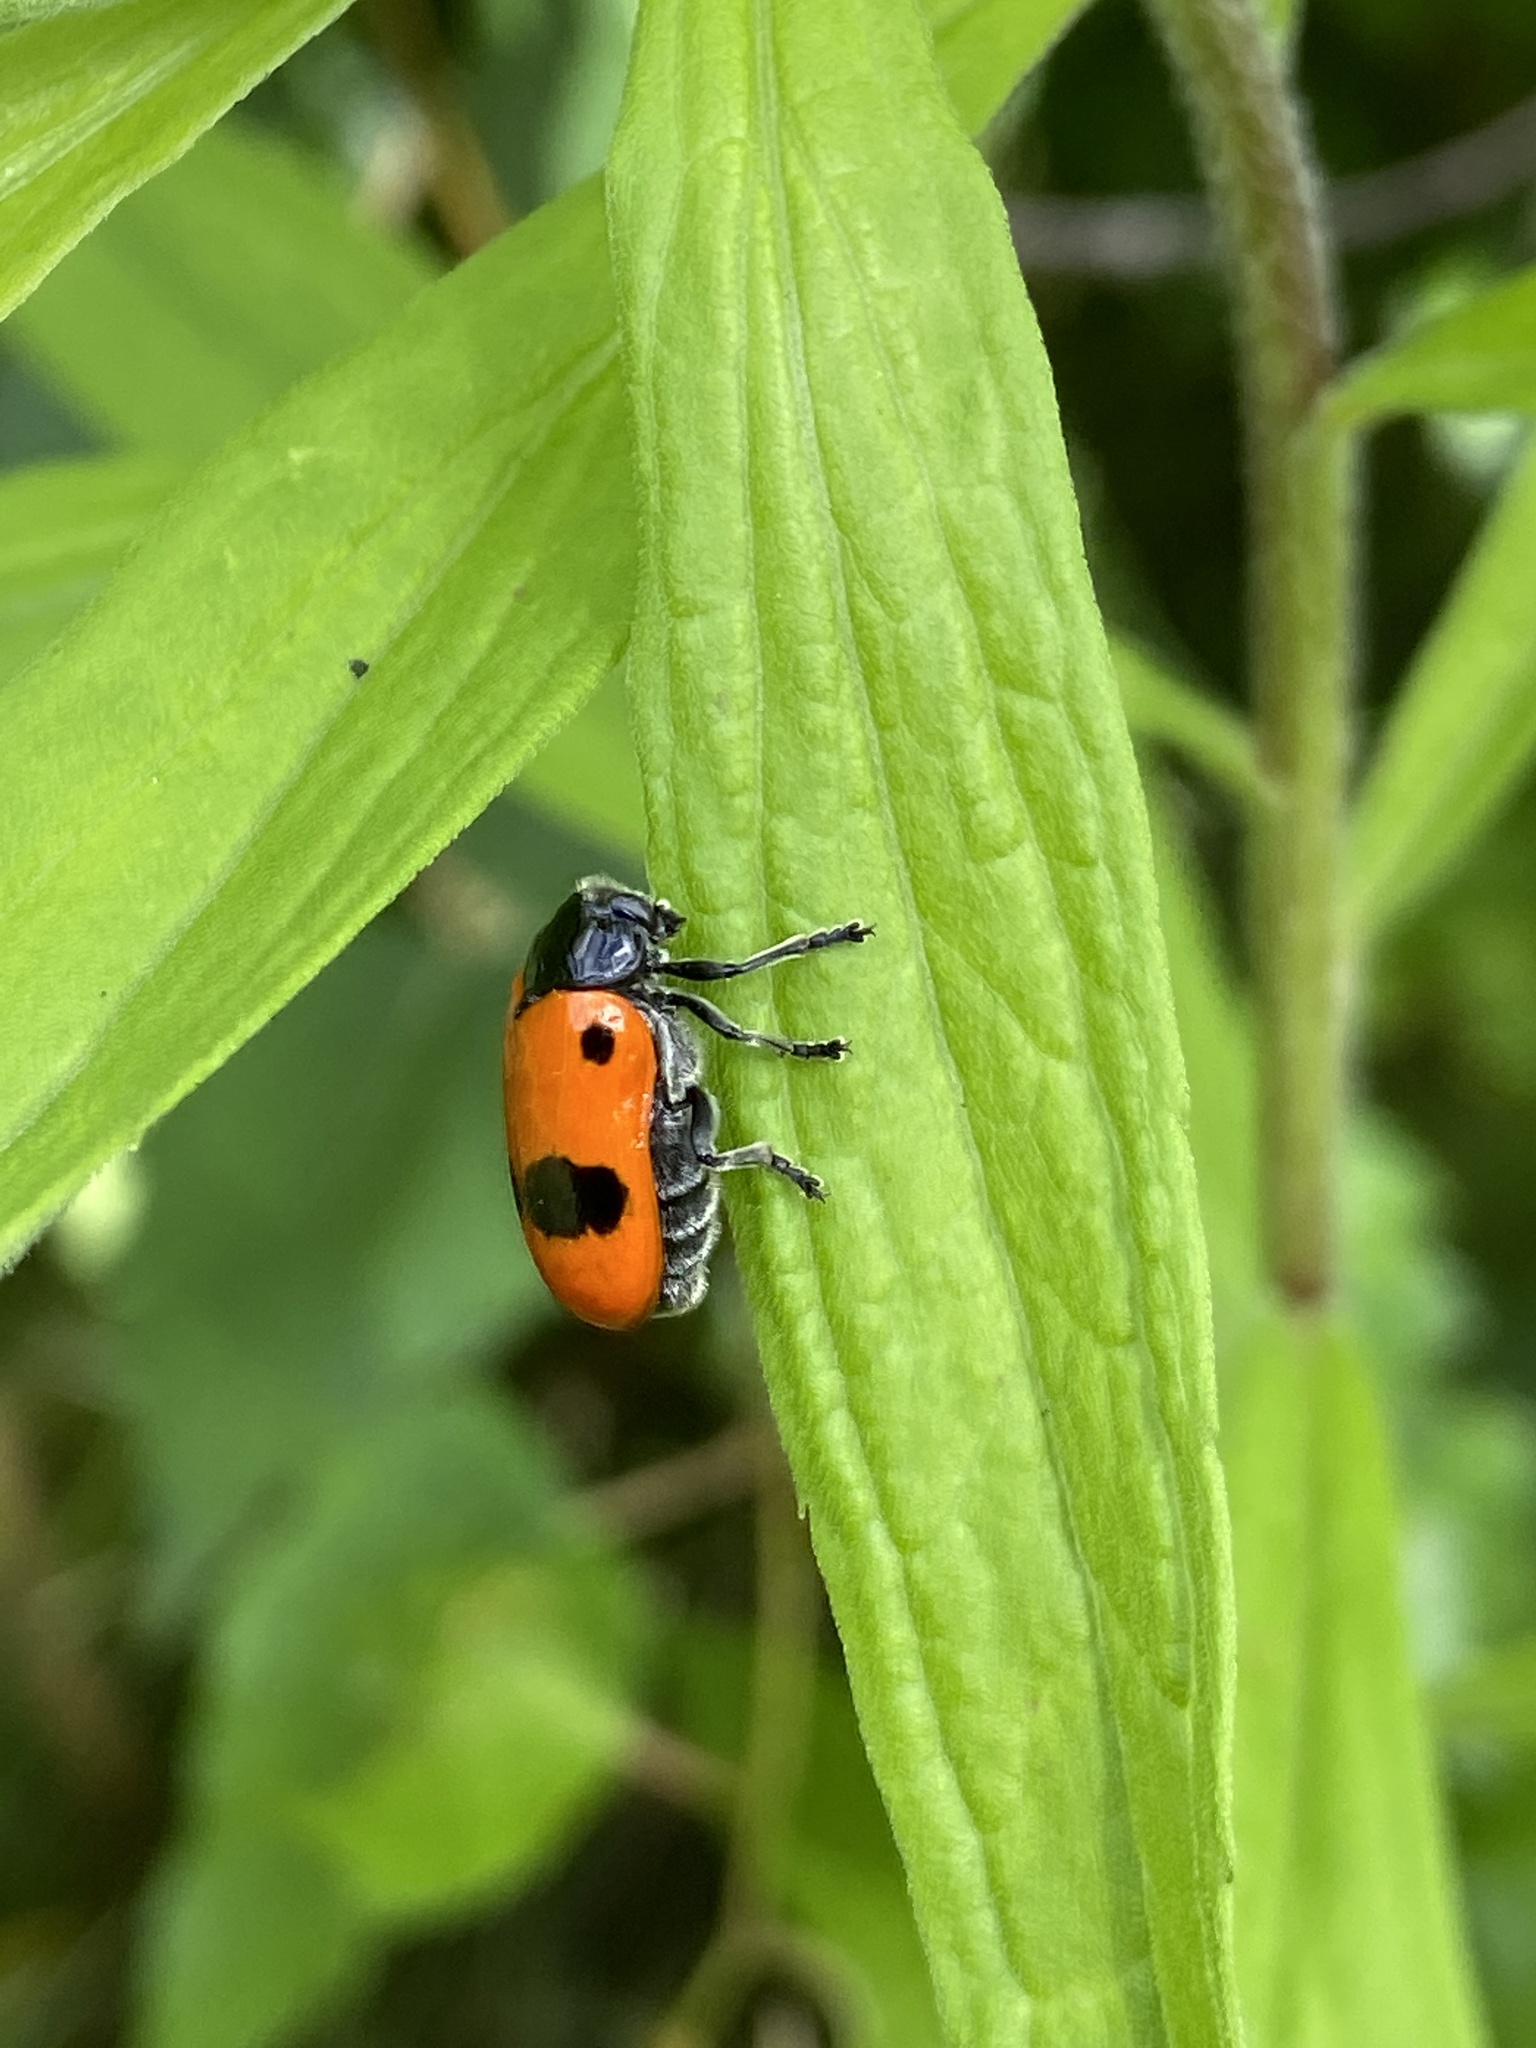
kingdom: Animalia
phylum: Arthropoda
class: Insecta
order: Coleoptera
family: Chrysomelidae
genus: Clytra
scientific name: Clytra laeviuscula
